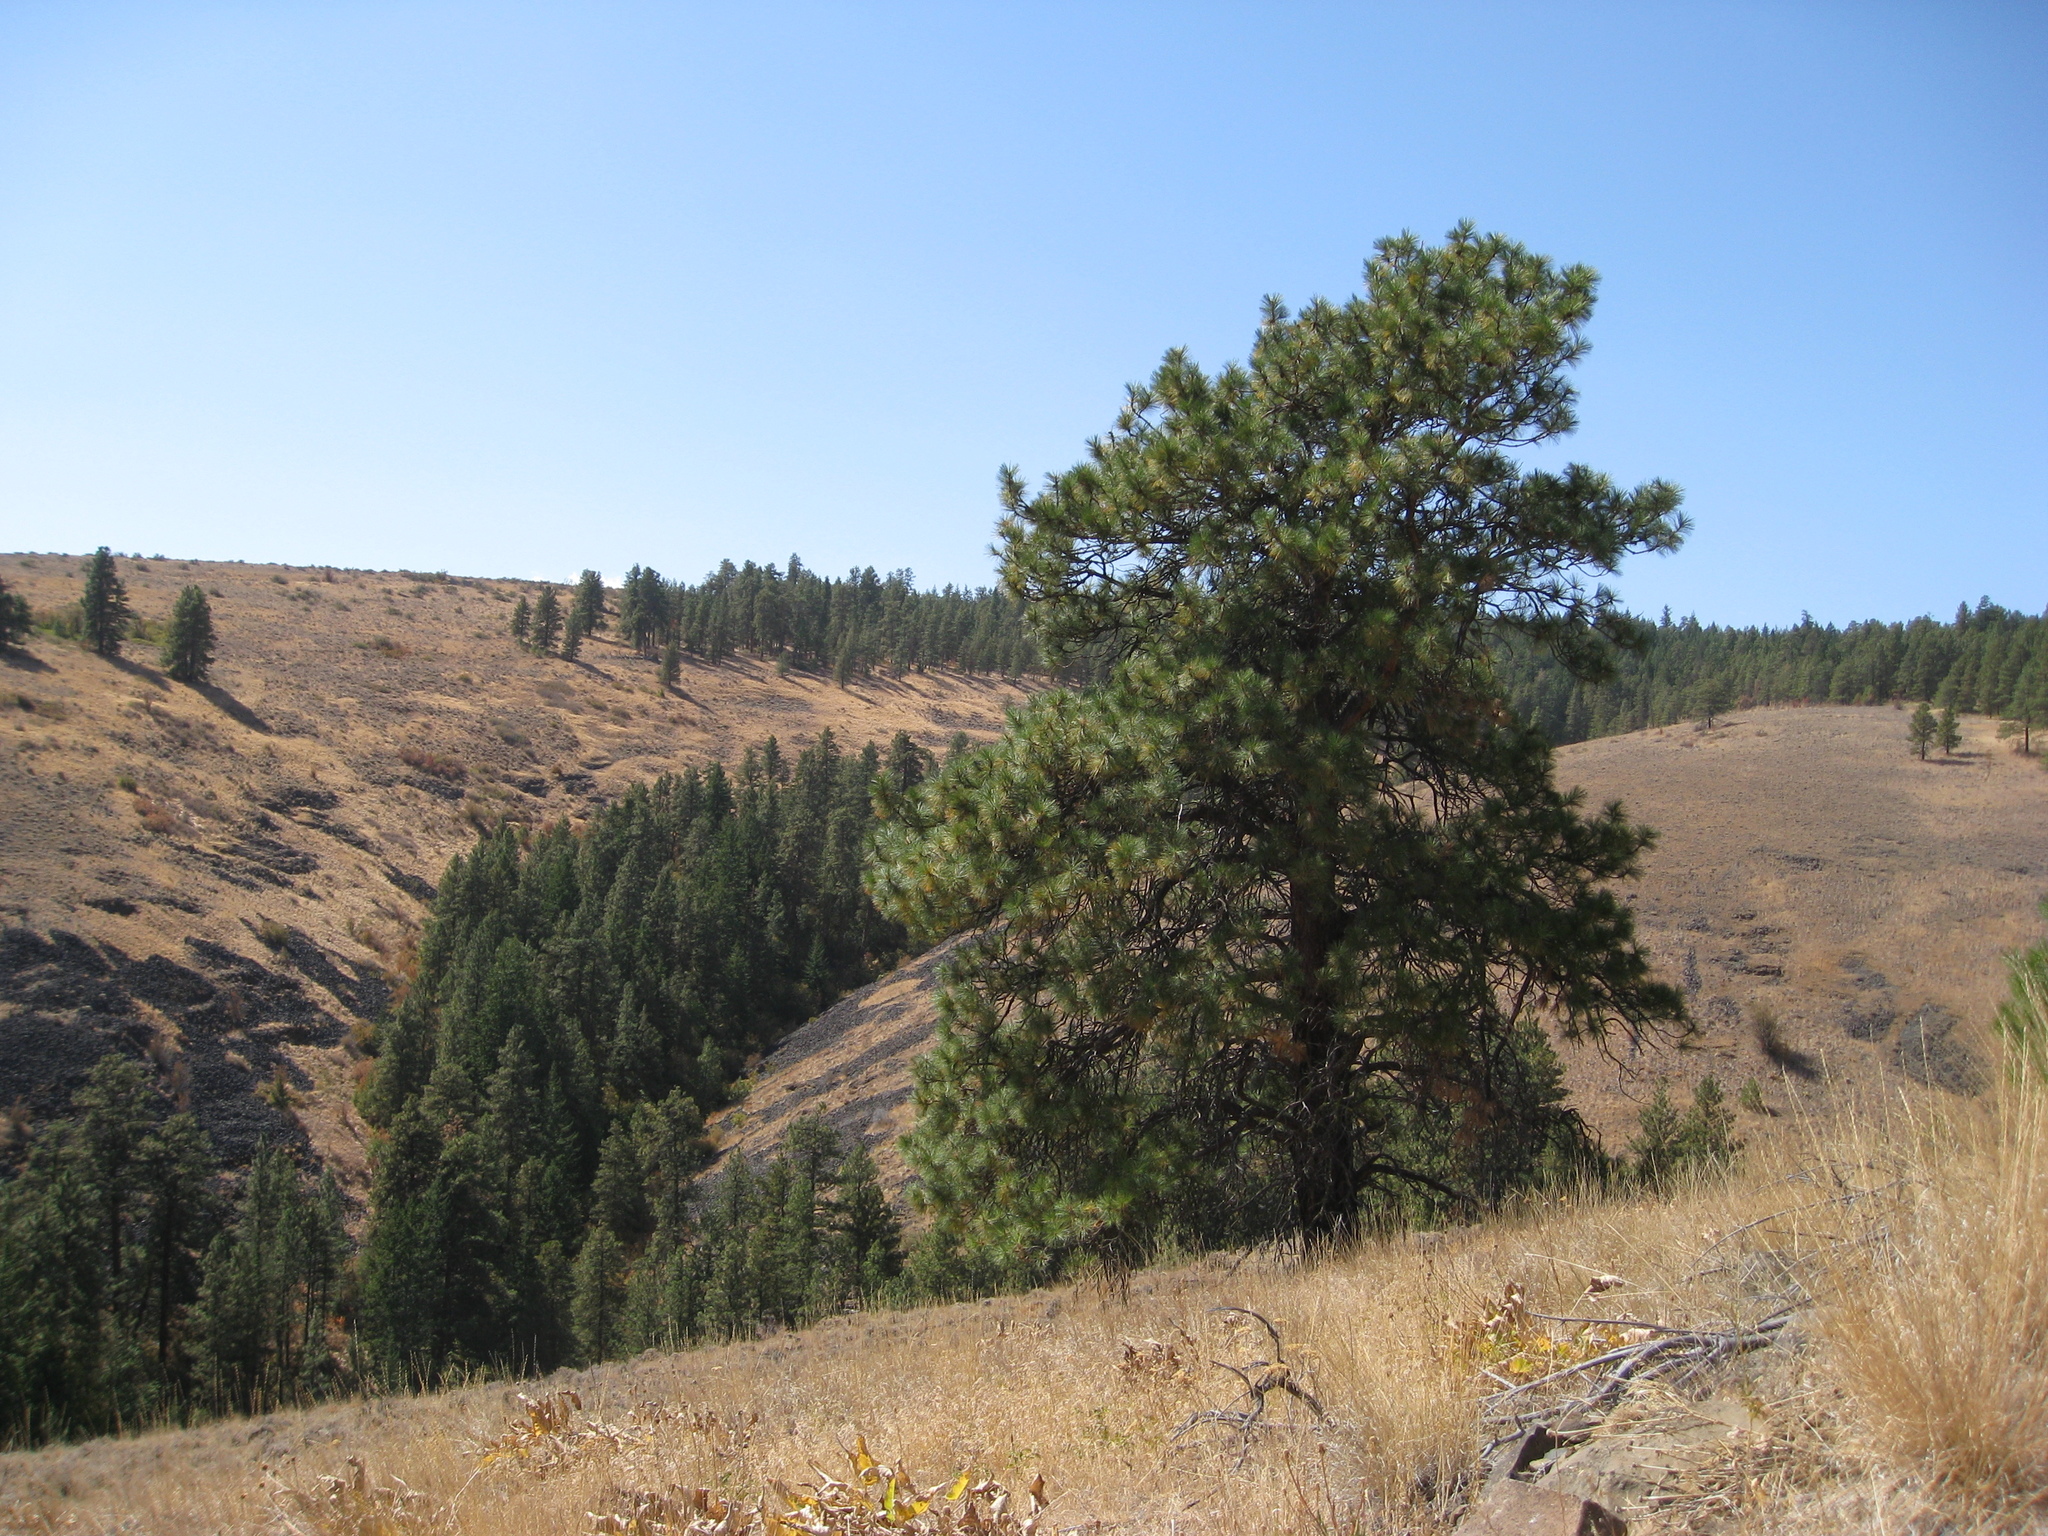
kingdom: Plantae
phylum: Tracheophyta
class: Pinopsida
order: Pinales
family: Pinaceae
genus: Pinus
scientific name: Pinus ponderosa
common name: Western yellow-pine
